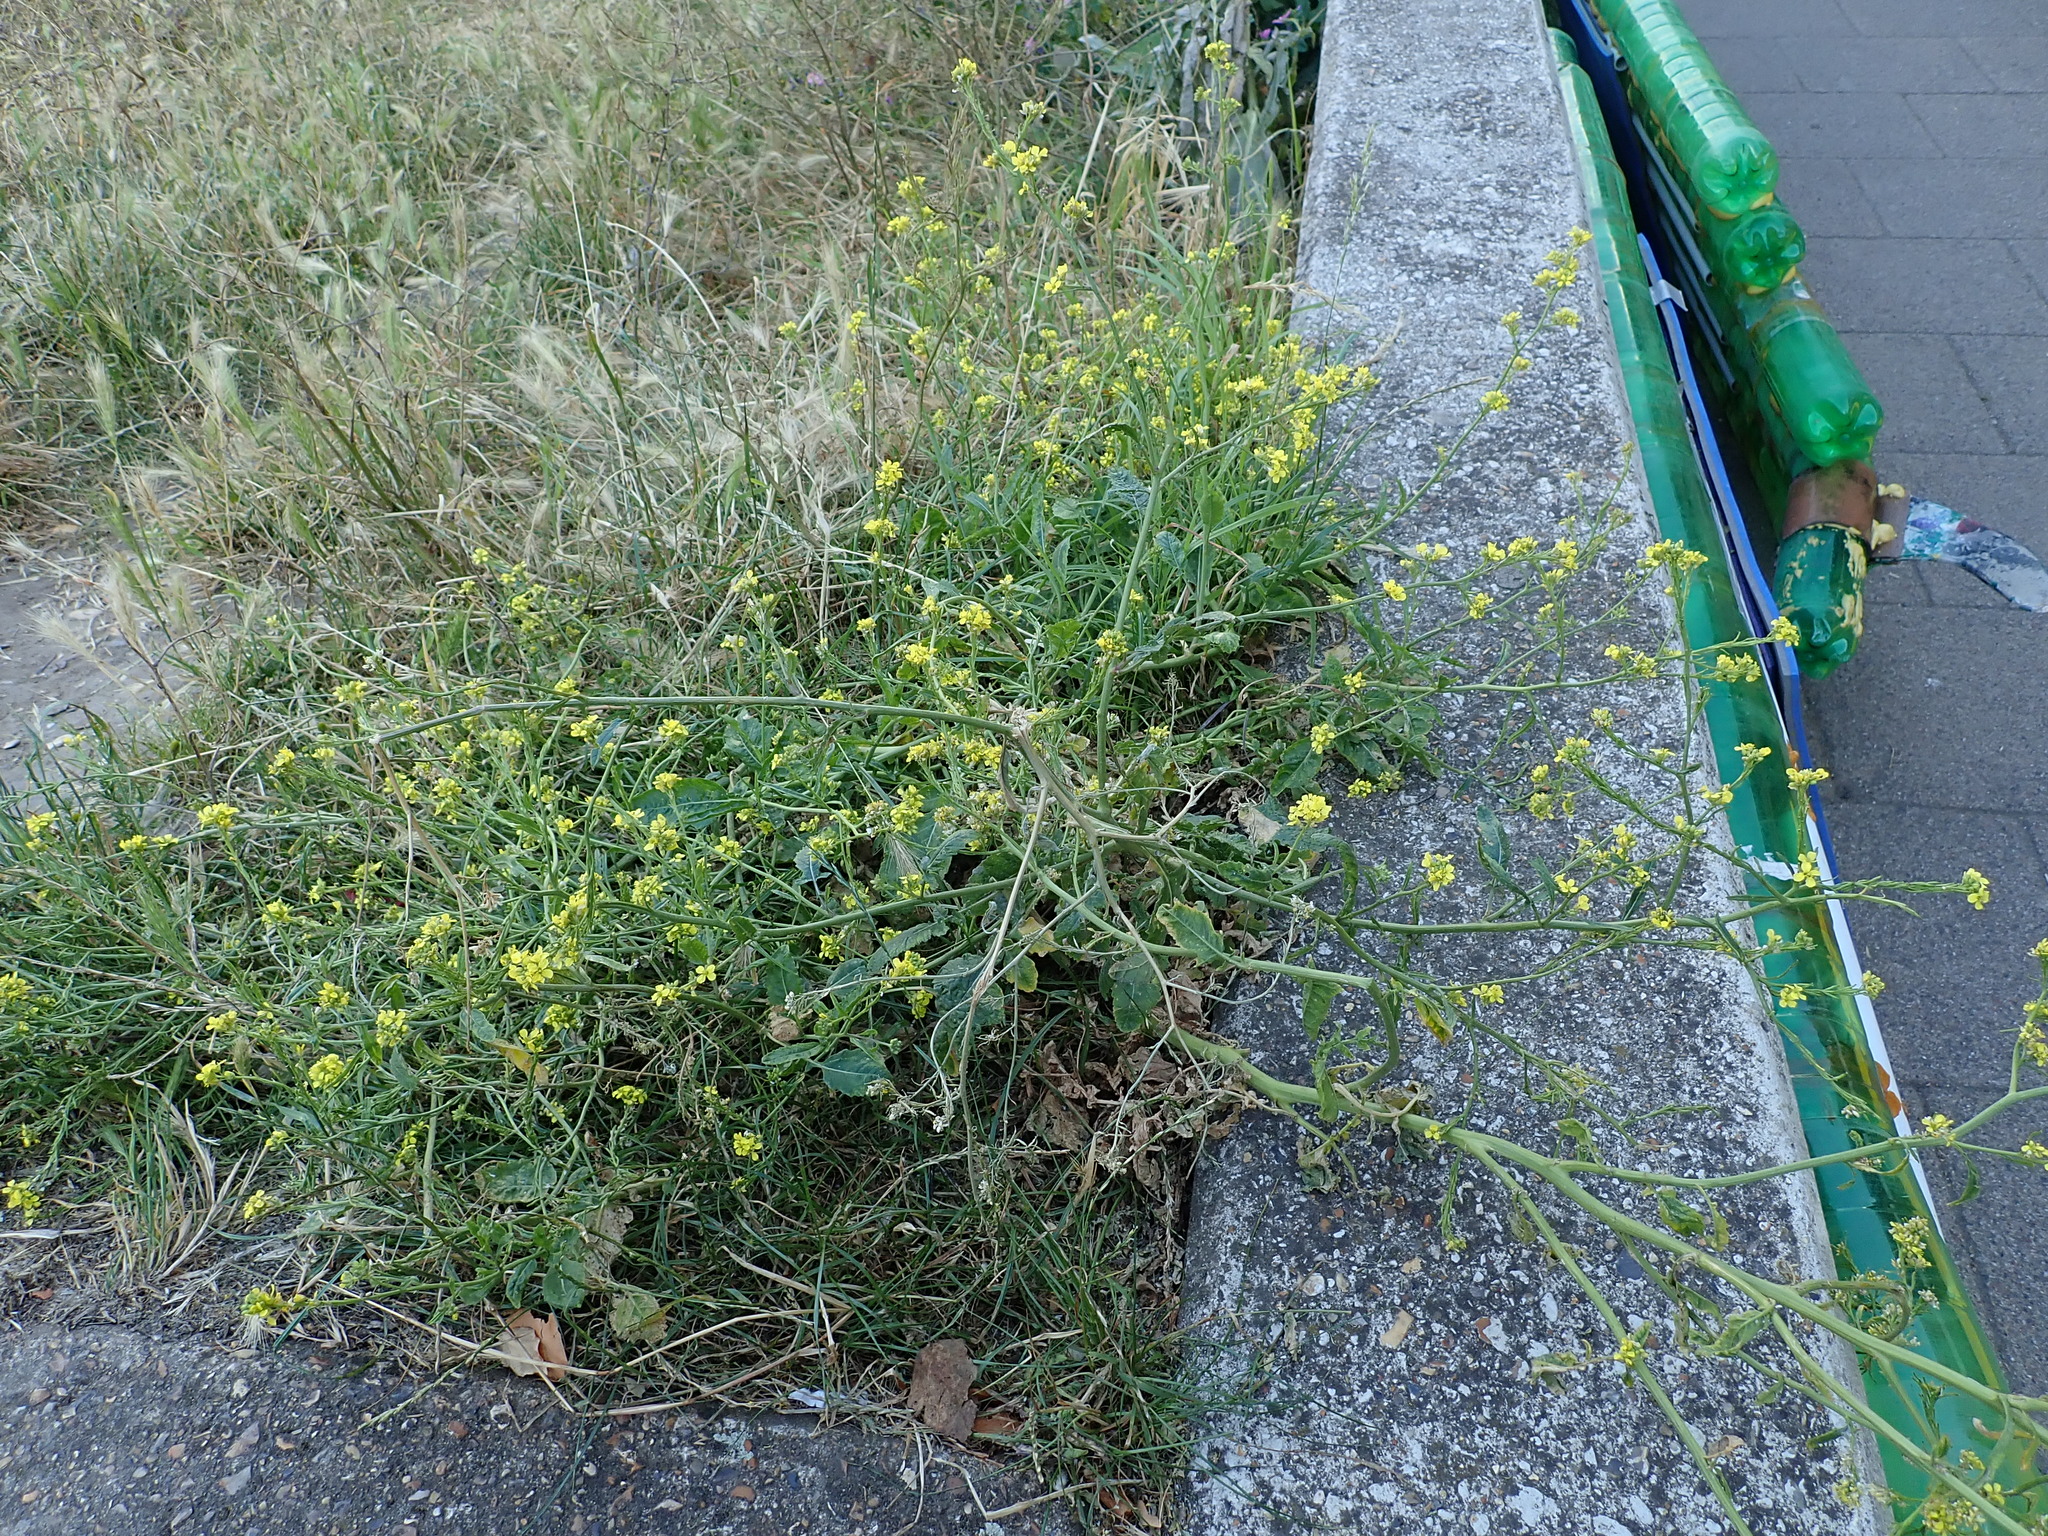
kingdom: Plantae
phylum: Tracheophyta
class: Magnoliopsida
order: Brassicales
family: Brassicaceae
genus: Hirschfeldia
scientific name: Hirschfeldia incana
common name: Hoary mustard
